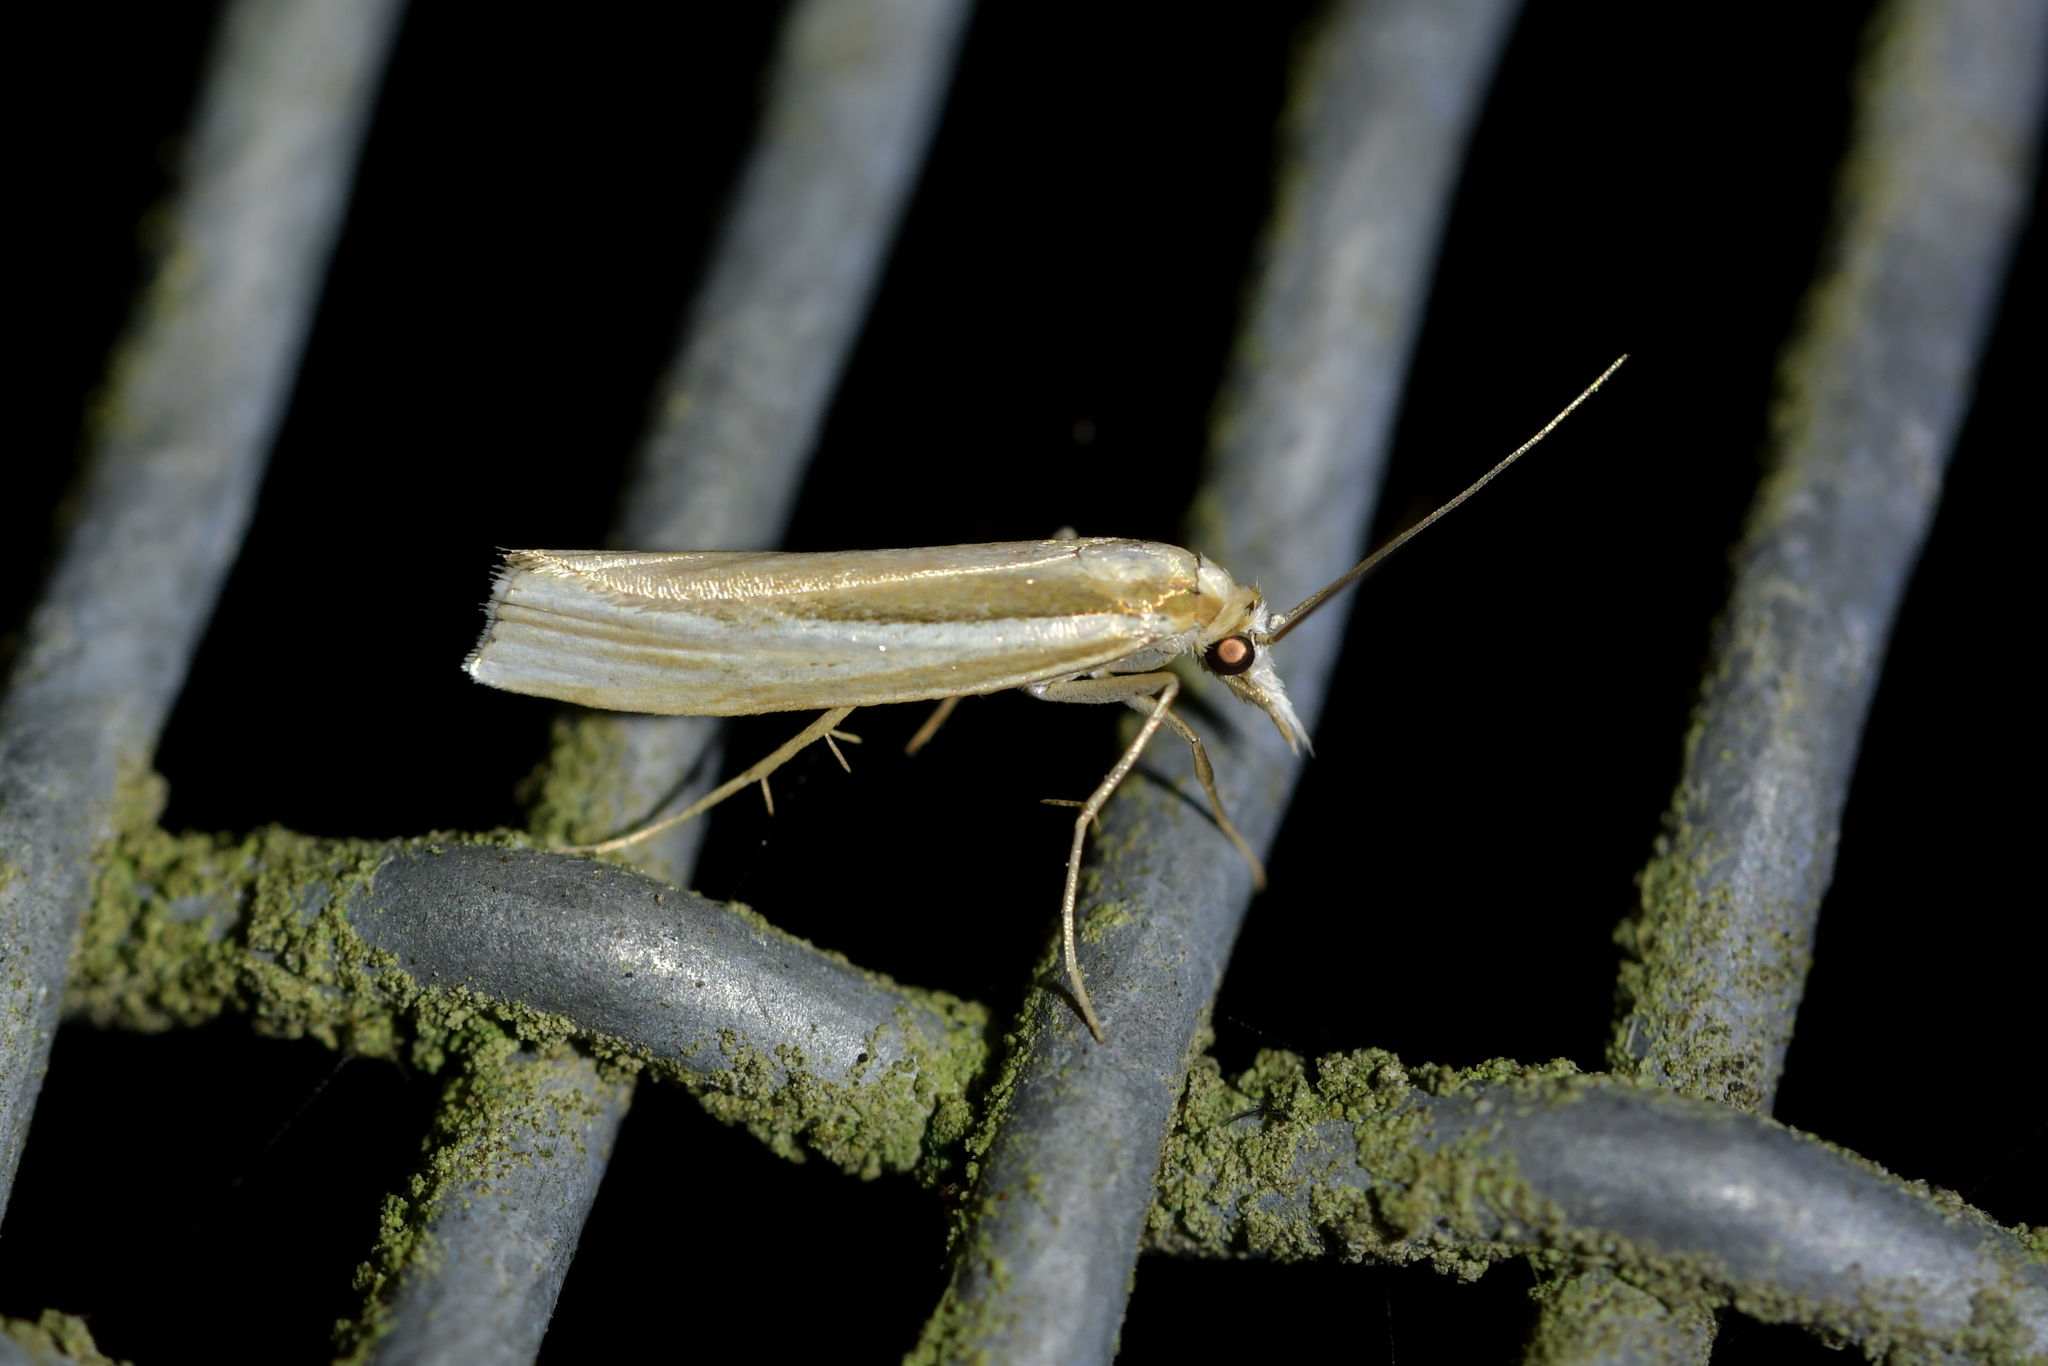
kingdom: Animalia
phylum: Arthropoda
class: Insecta
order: Lepidoptera
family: Crambidae
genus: Orocrambus
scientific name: Orocrambus ramosellus
